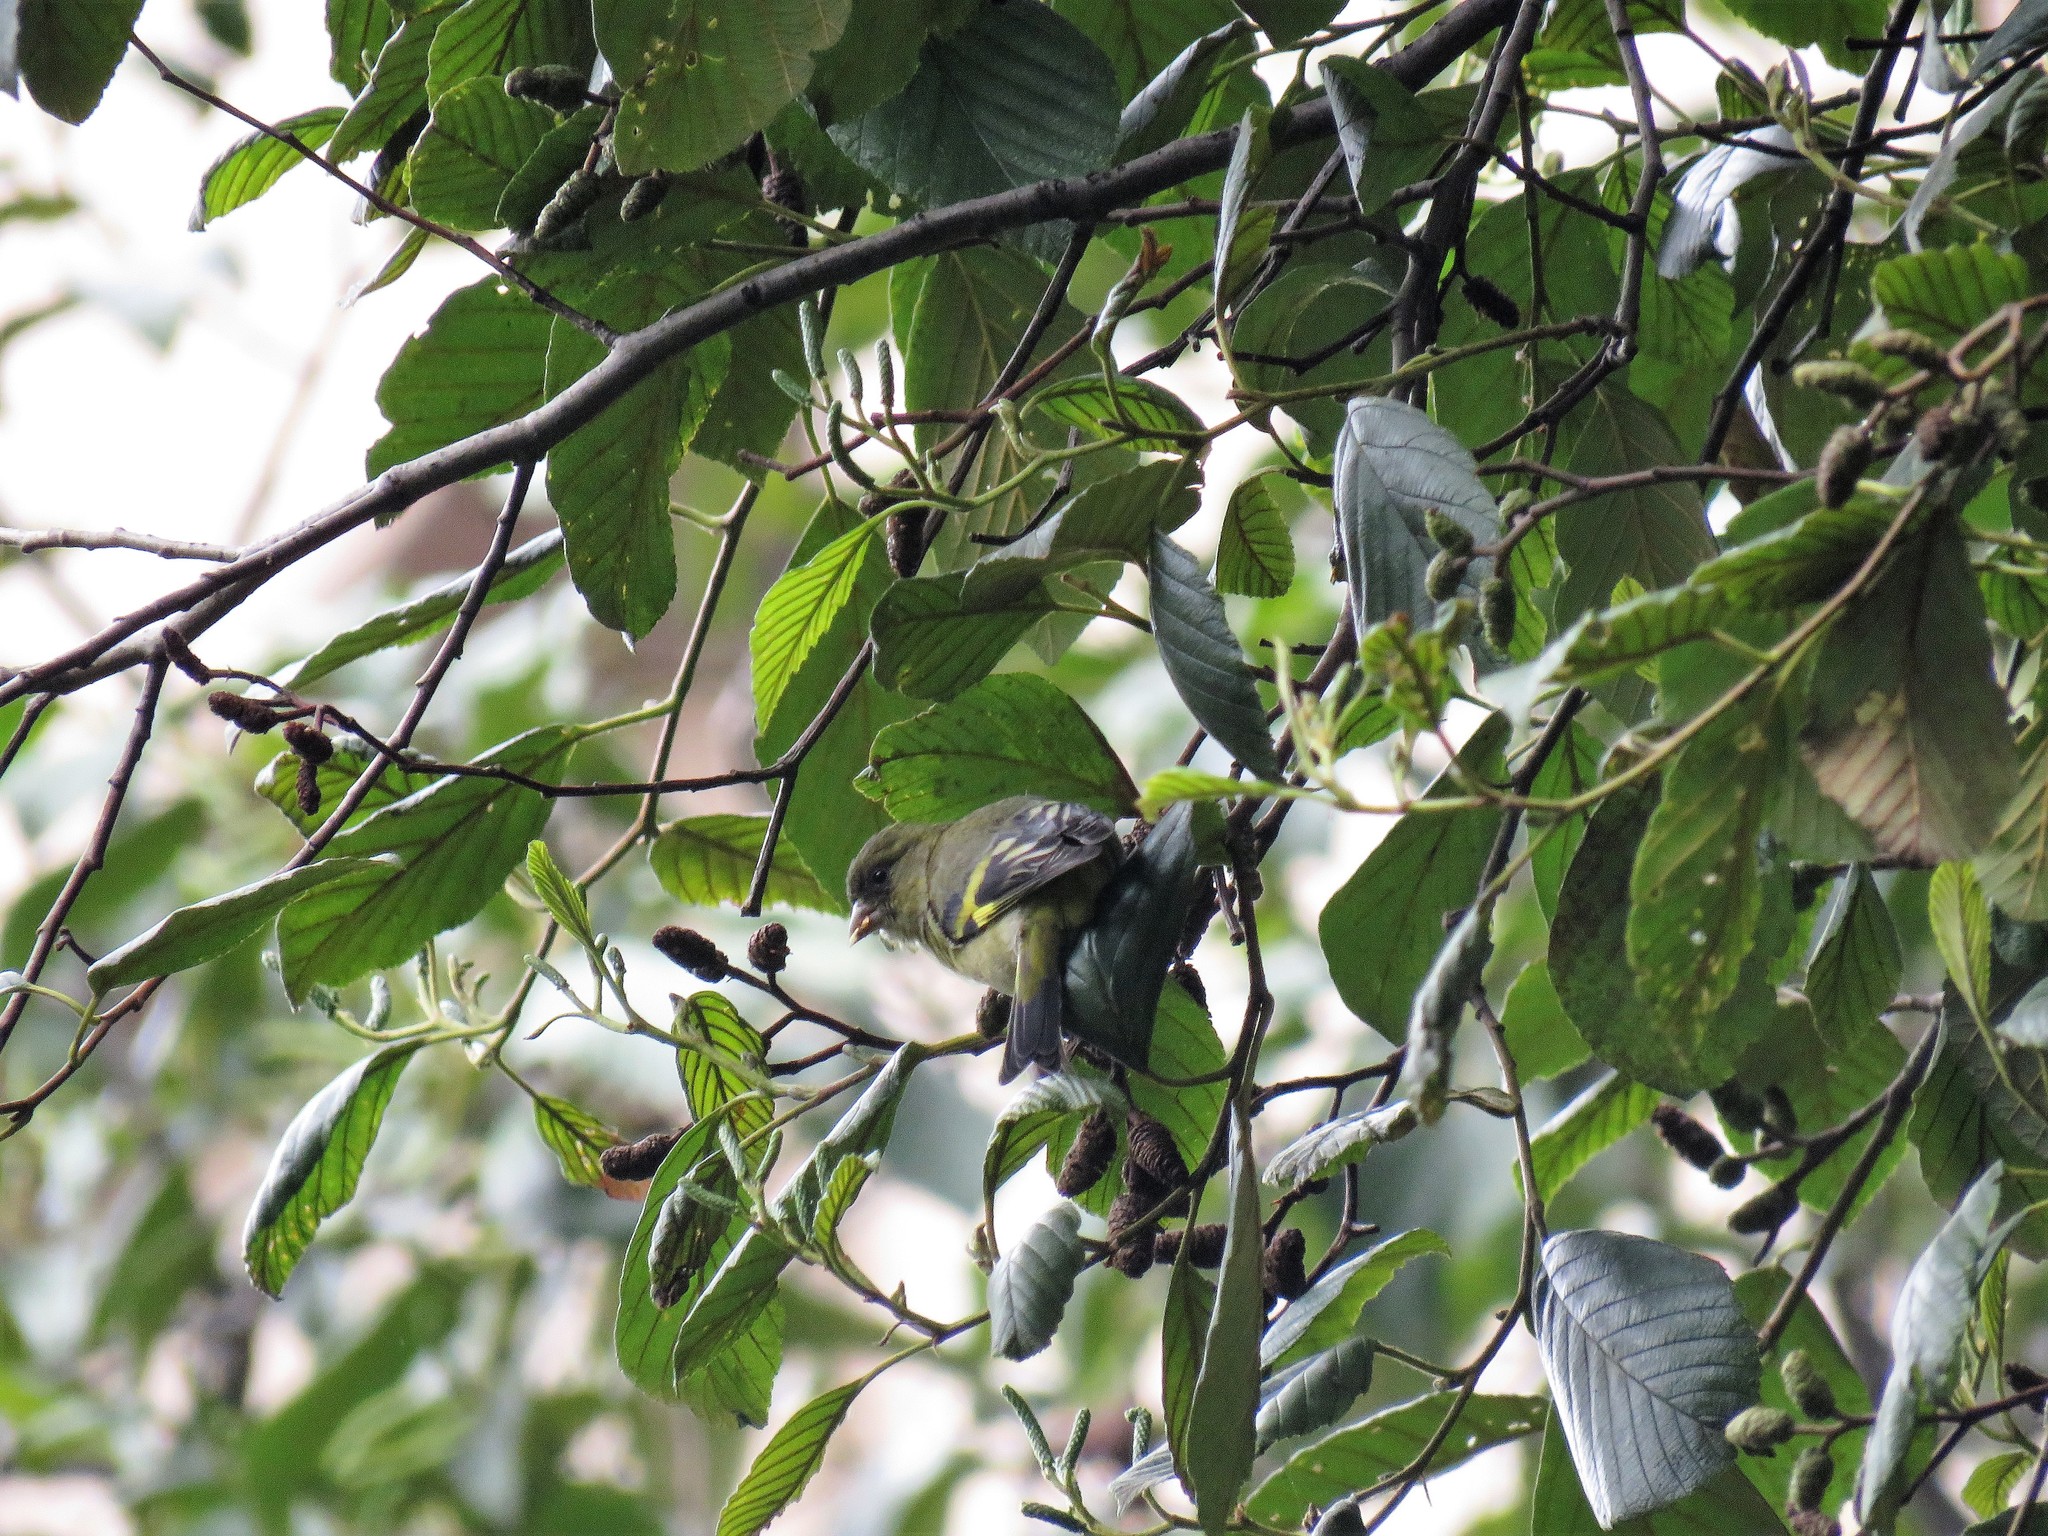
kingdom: Animalia
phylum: Chordata
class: Aves
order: Passeriformes
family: Fringillidae
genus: Spinus
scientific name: Spinus spinescens
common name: Andean siskin
